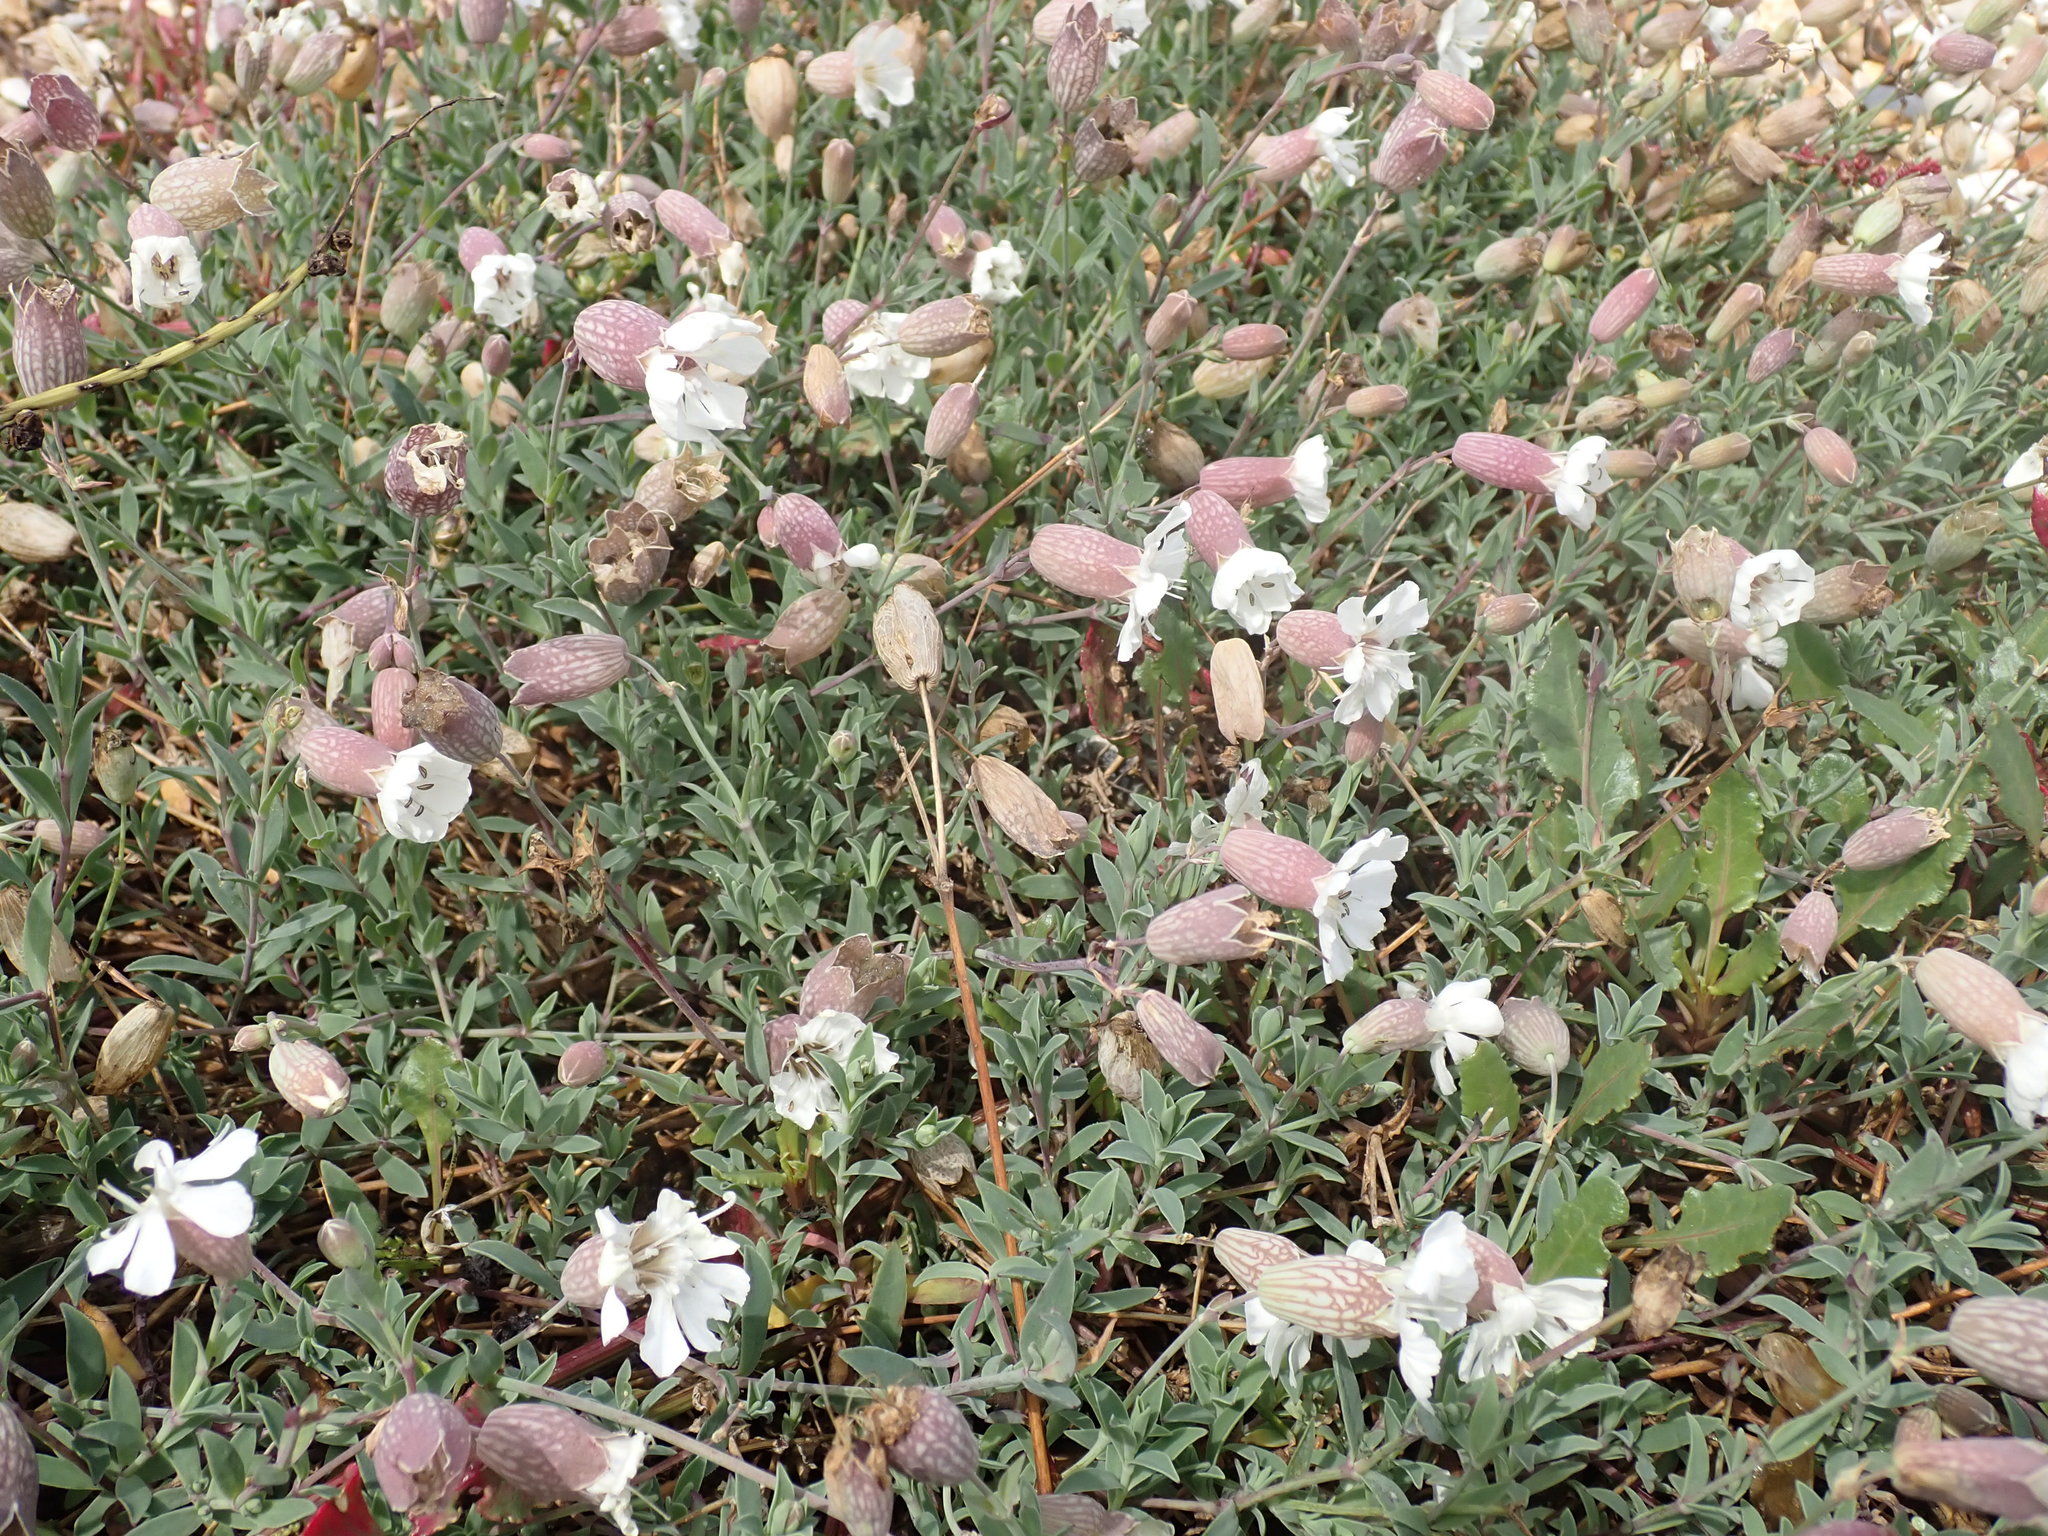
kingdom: Plantae
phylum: Tracheophyta
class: Magnoliopsida
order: Caryophyllales
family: Caryophyllaceae
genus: Silene
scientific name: Silene uniflora
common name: Sea campion
